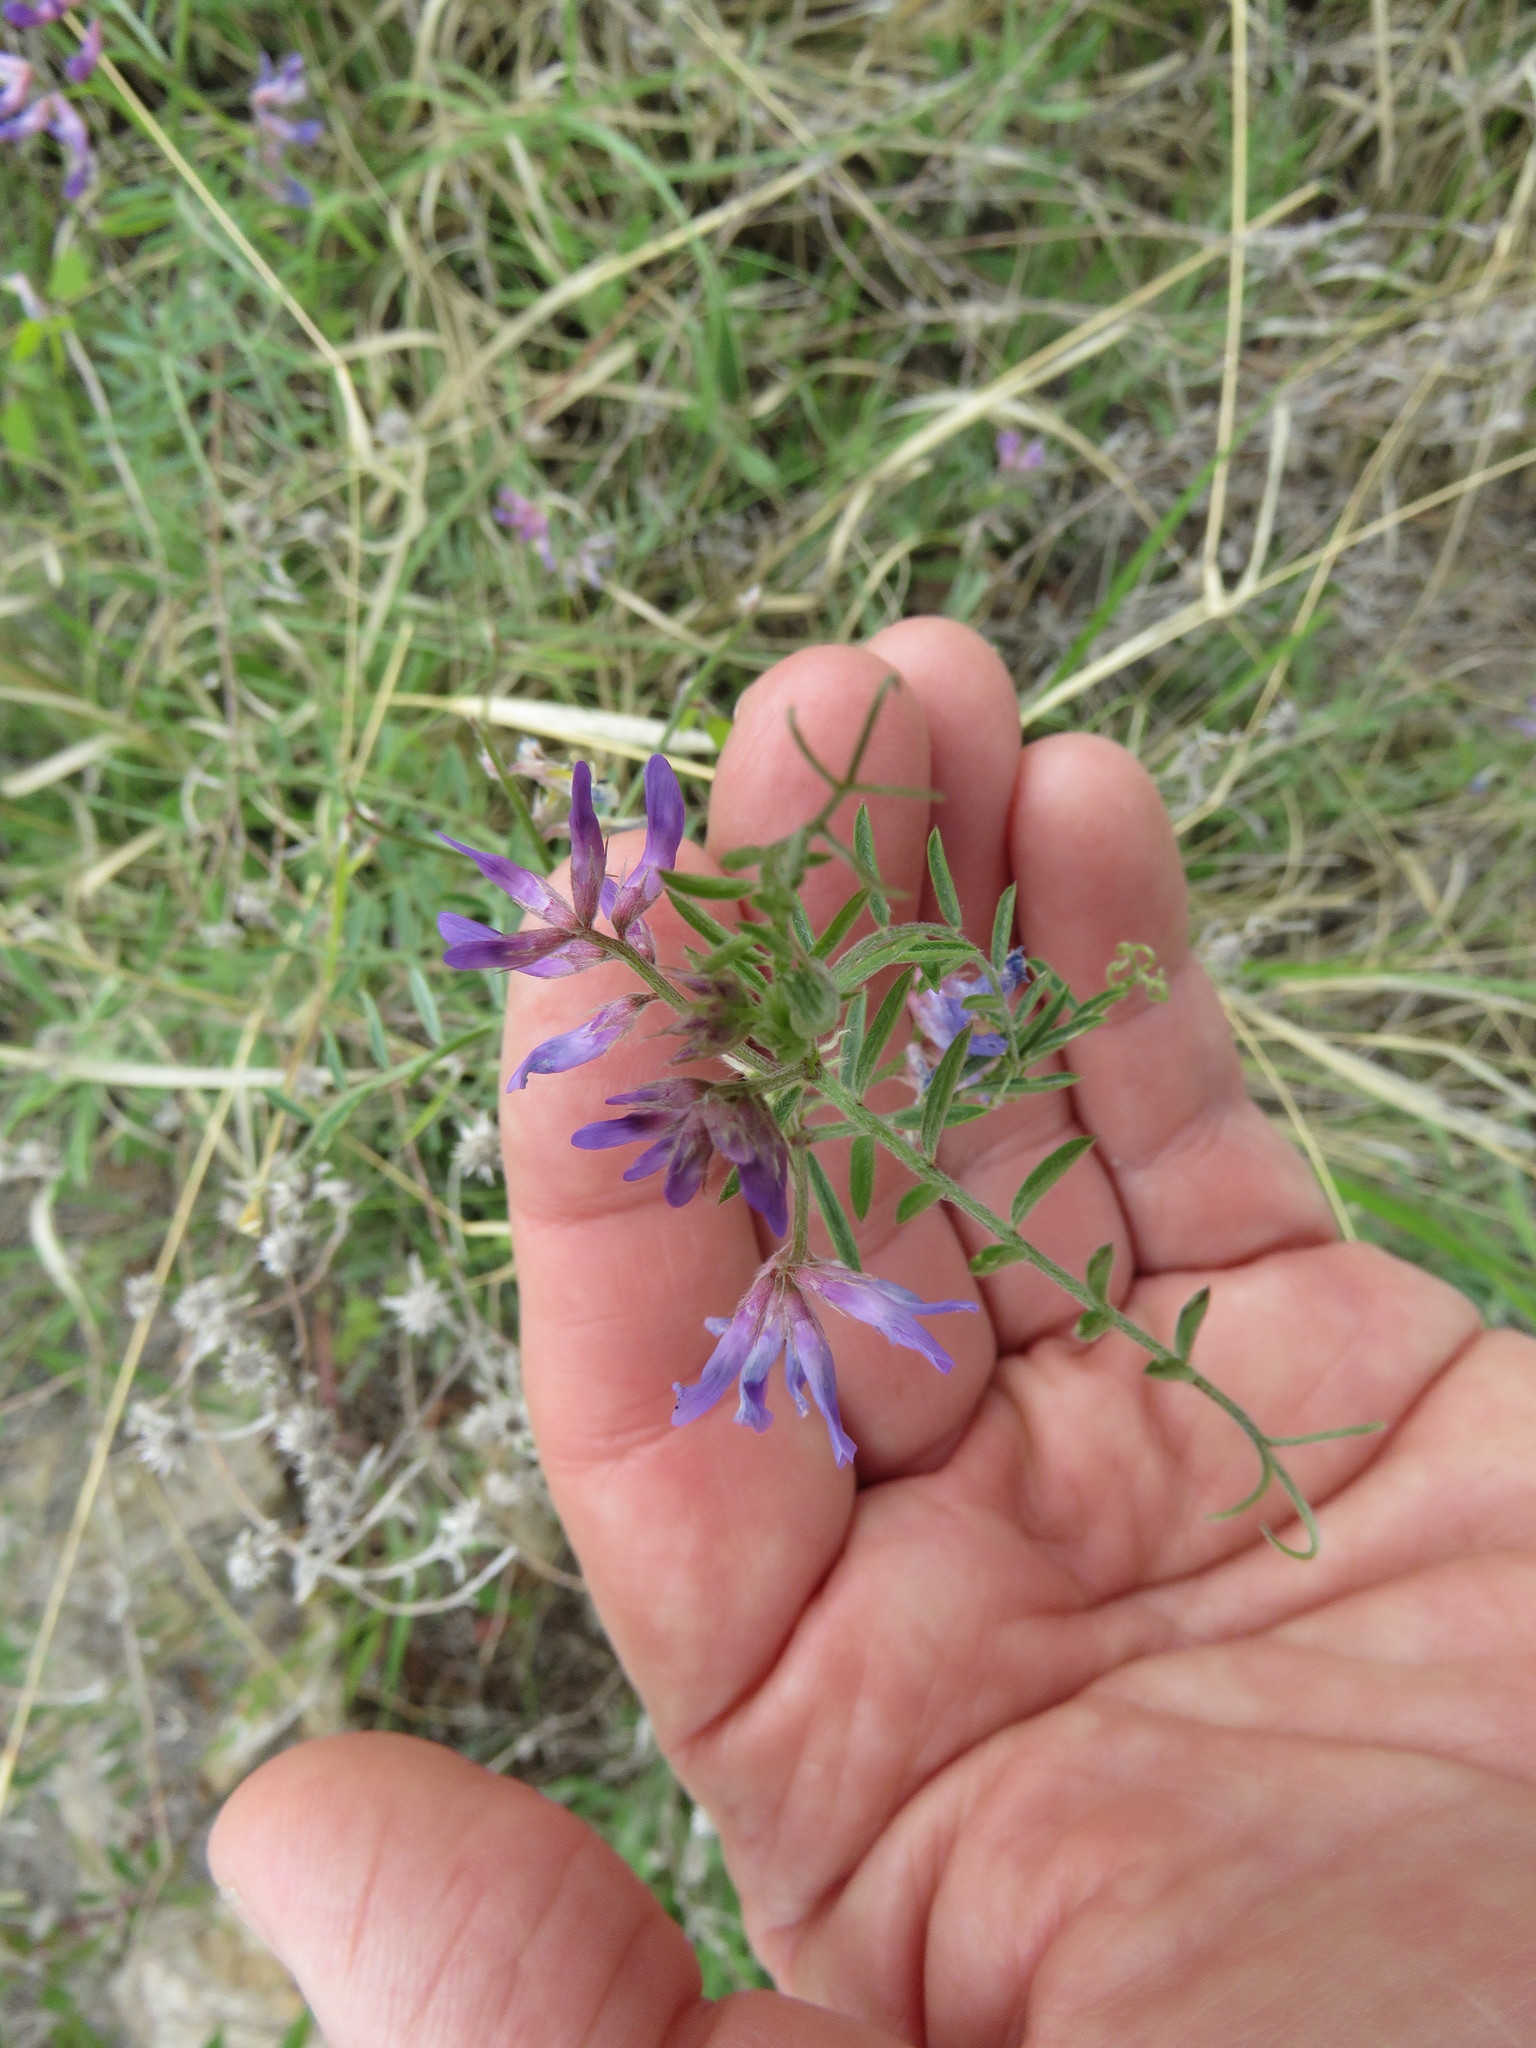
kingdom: Plantae
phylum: Tracheophyta
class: Magnoliopsida
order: Fabales
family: Fabaceae
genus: Vicia
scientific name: Vicia ludoviciana
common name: Louisiana vetch
